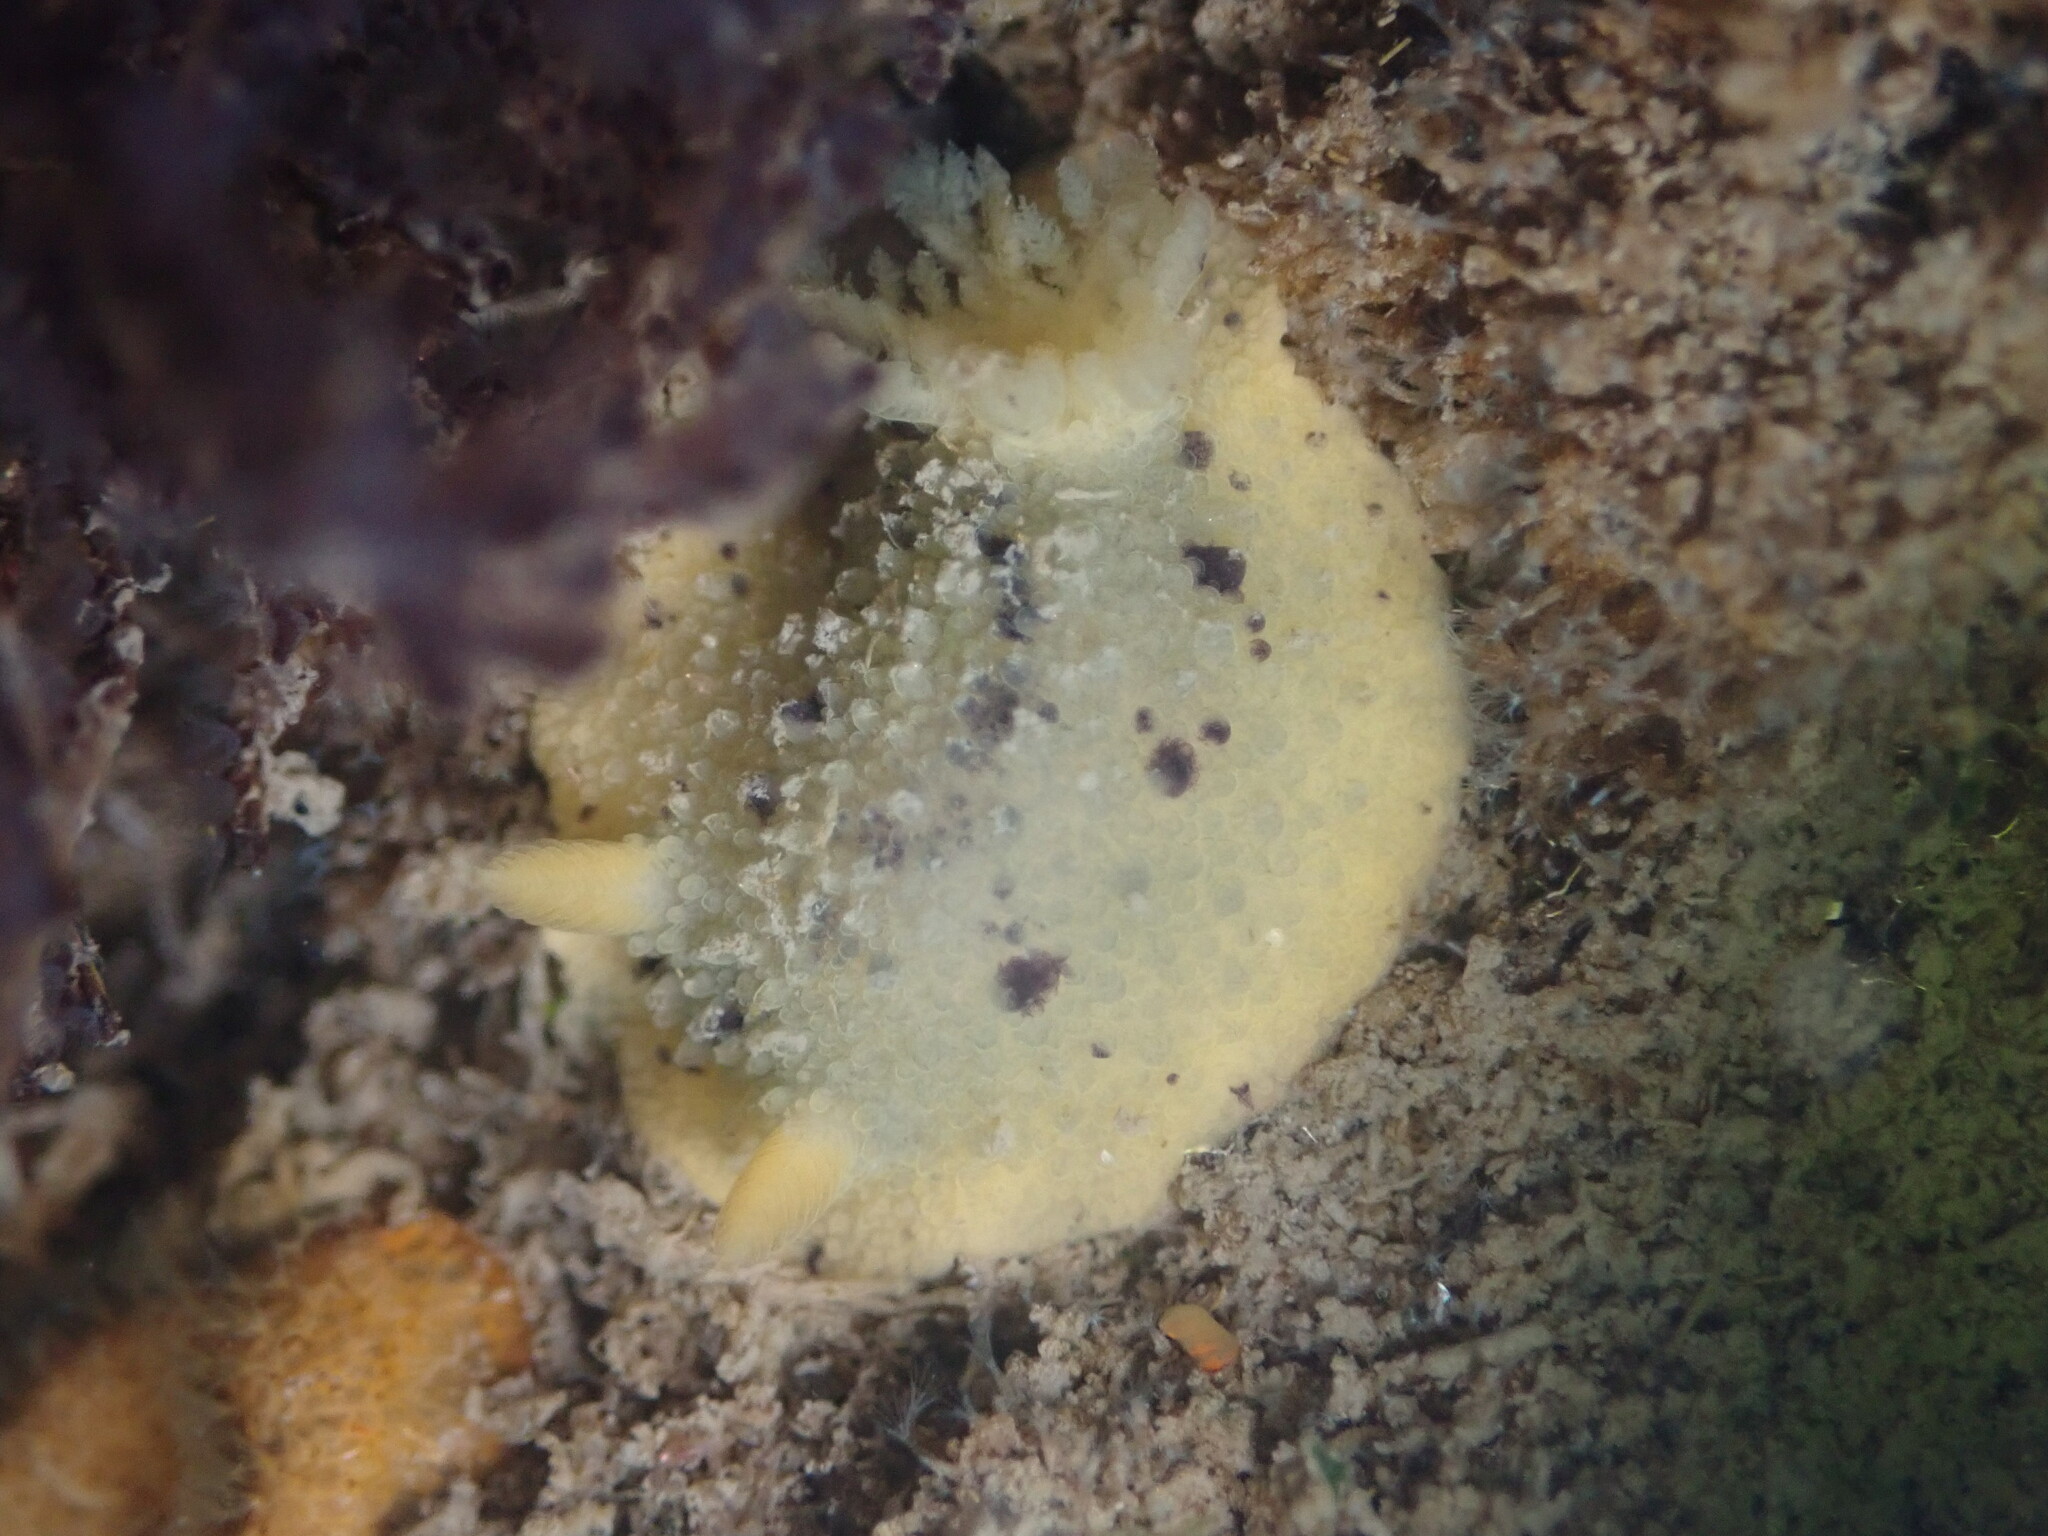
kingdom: Animalia
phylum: Mollusca
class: Gastropoda
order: Nudibranchia
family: Dorididae
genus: Doris
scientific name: Doris montereyensis
